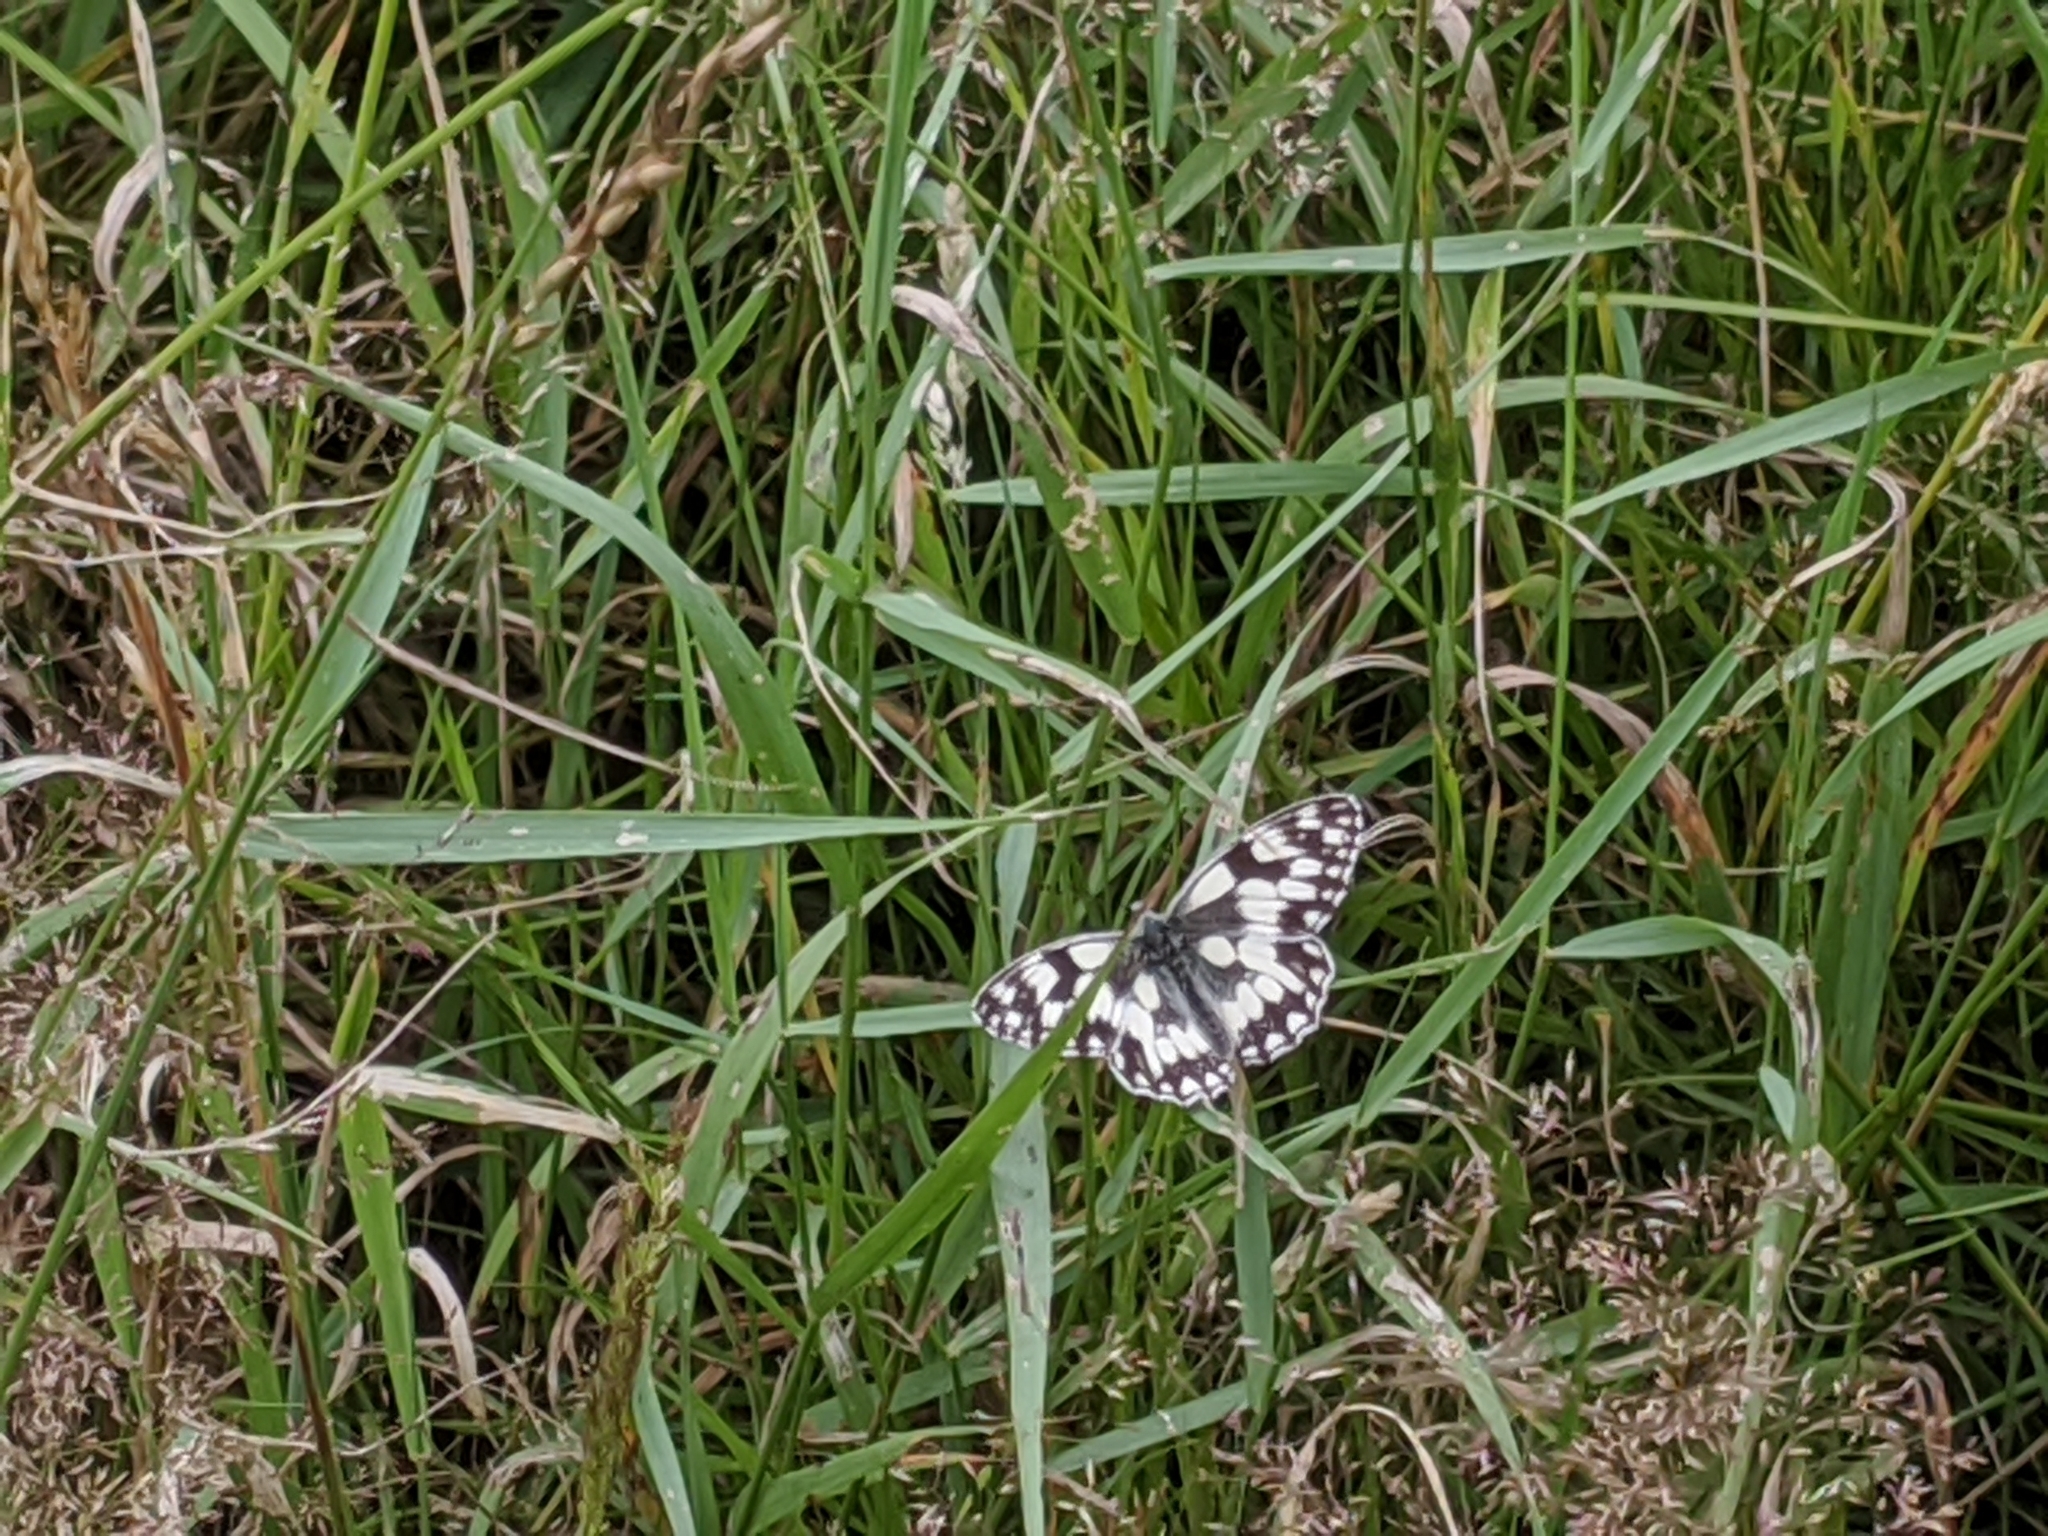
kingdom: Animalia
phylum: Arthropoda
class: Insecta
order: Lepidoptera
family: Nymphalidae
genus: Melanargia
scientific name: Melanargia galathea
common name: Marbled white
